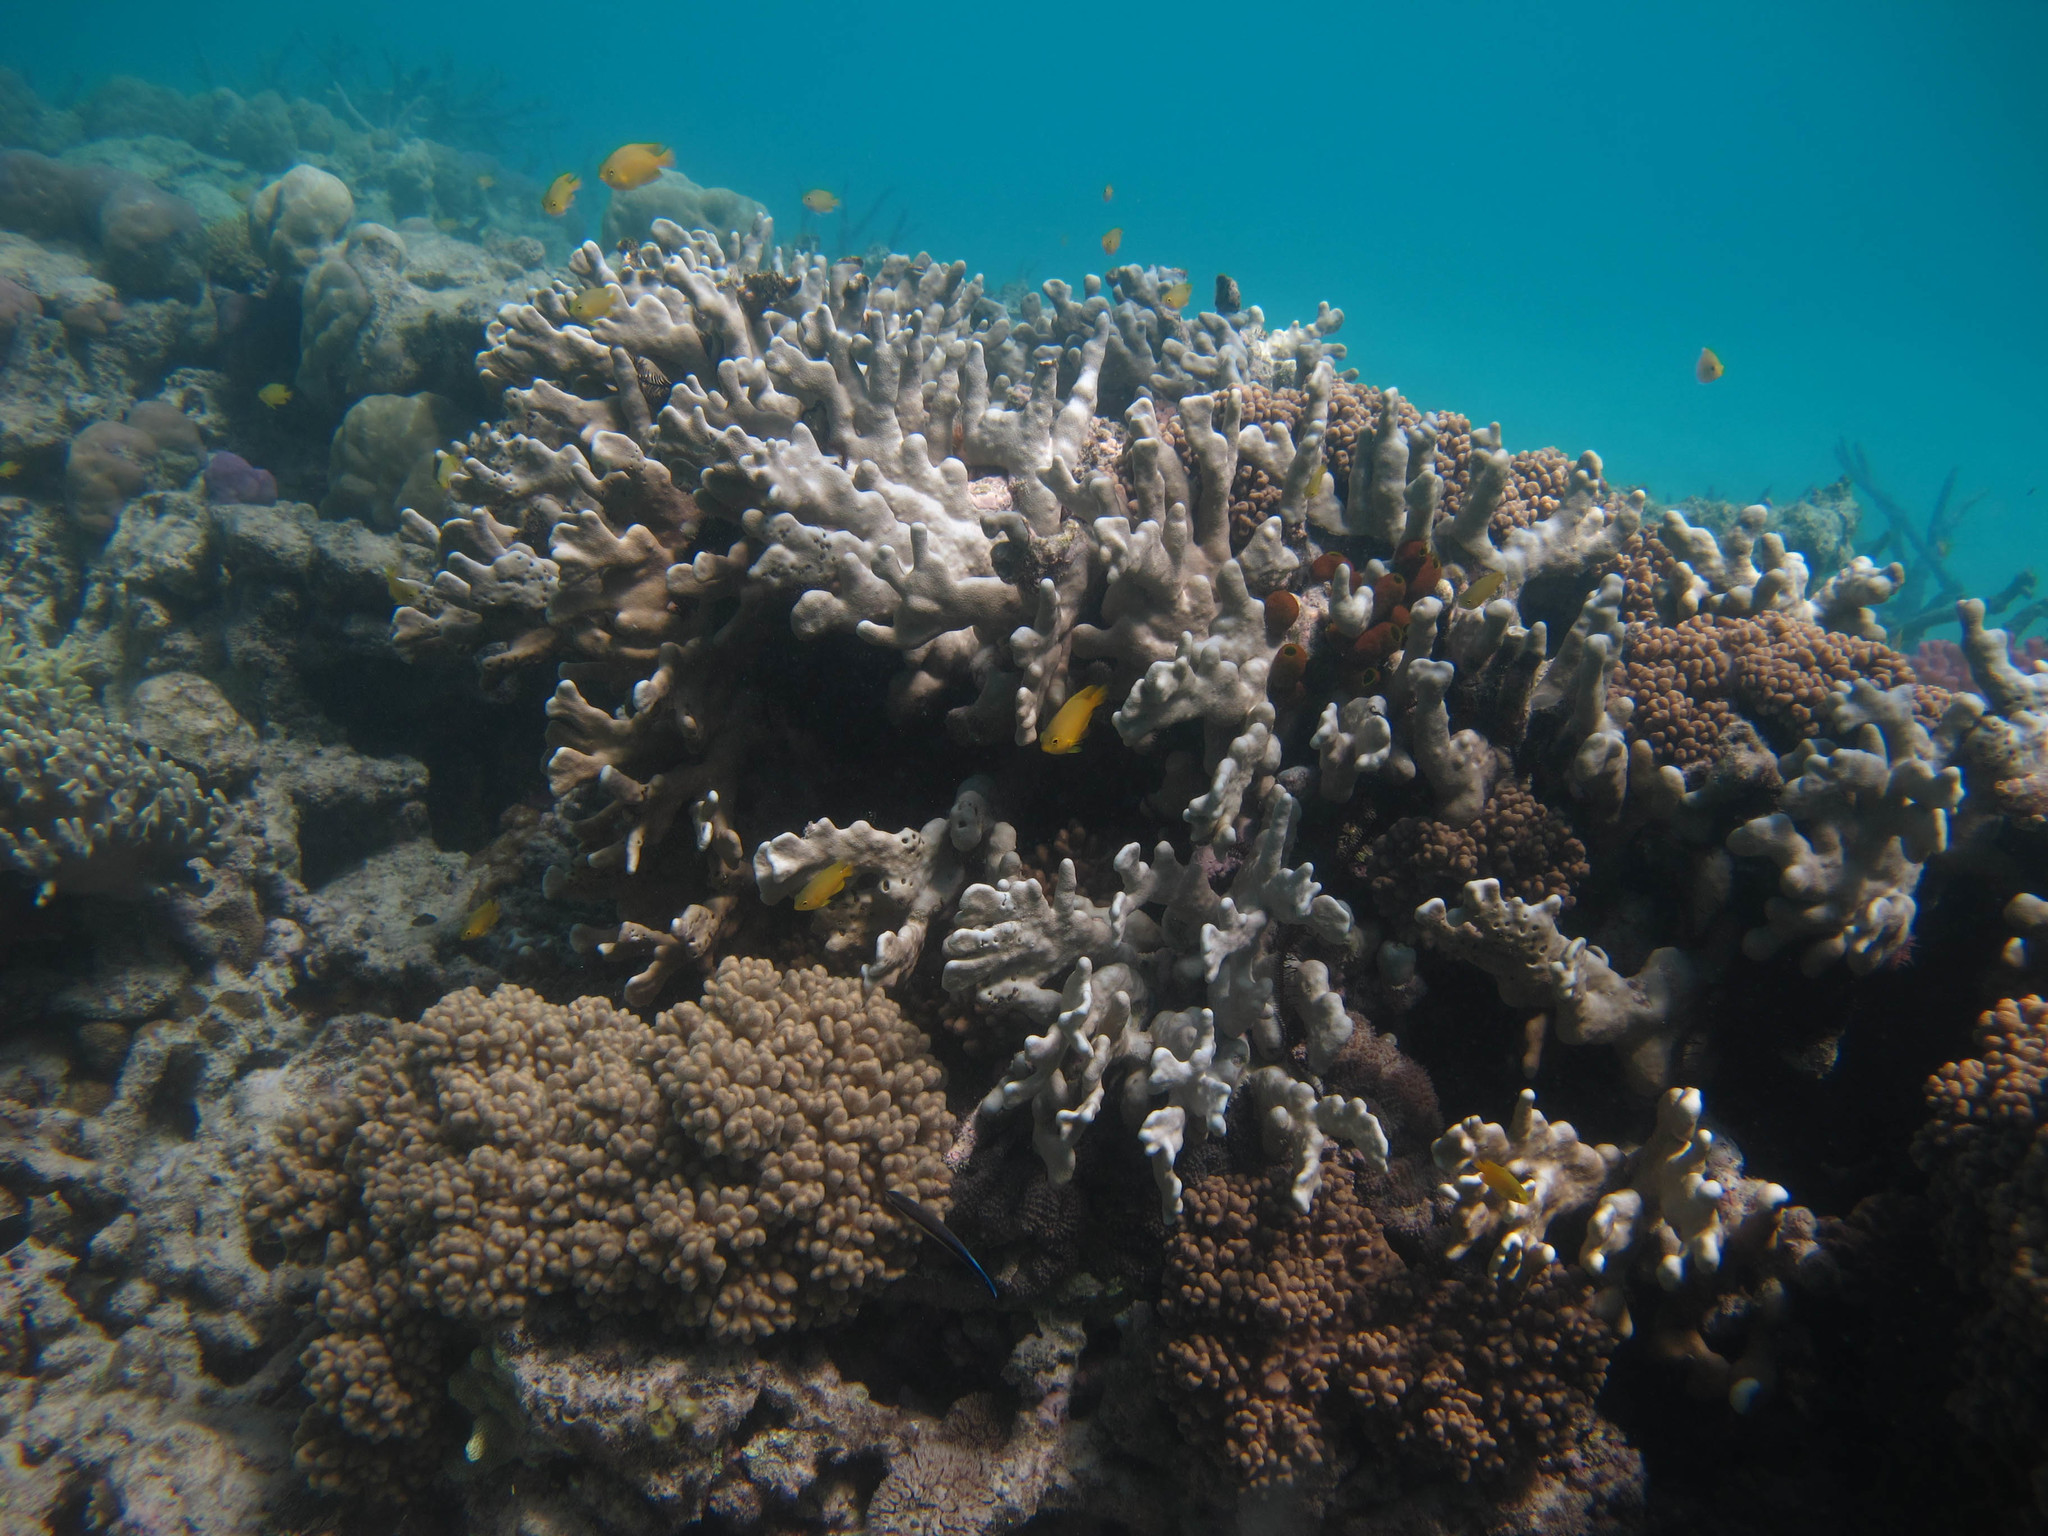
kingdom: Animalia
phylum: Cnidaria
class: Anthozoa
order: Scleralcyonacea
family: Helioporidae
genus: Heliopora
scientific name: Heliopora coerulea
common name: Blue coral
